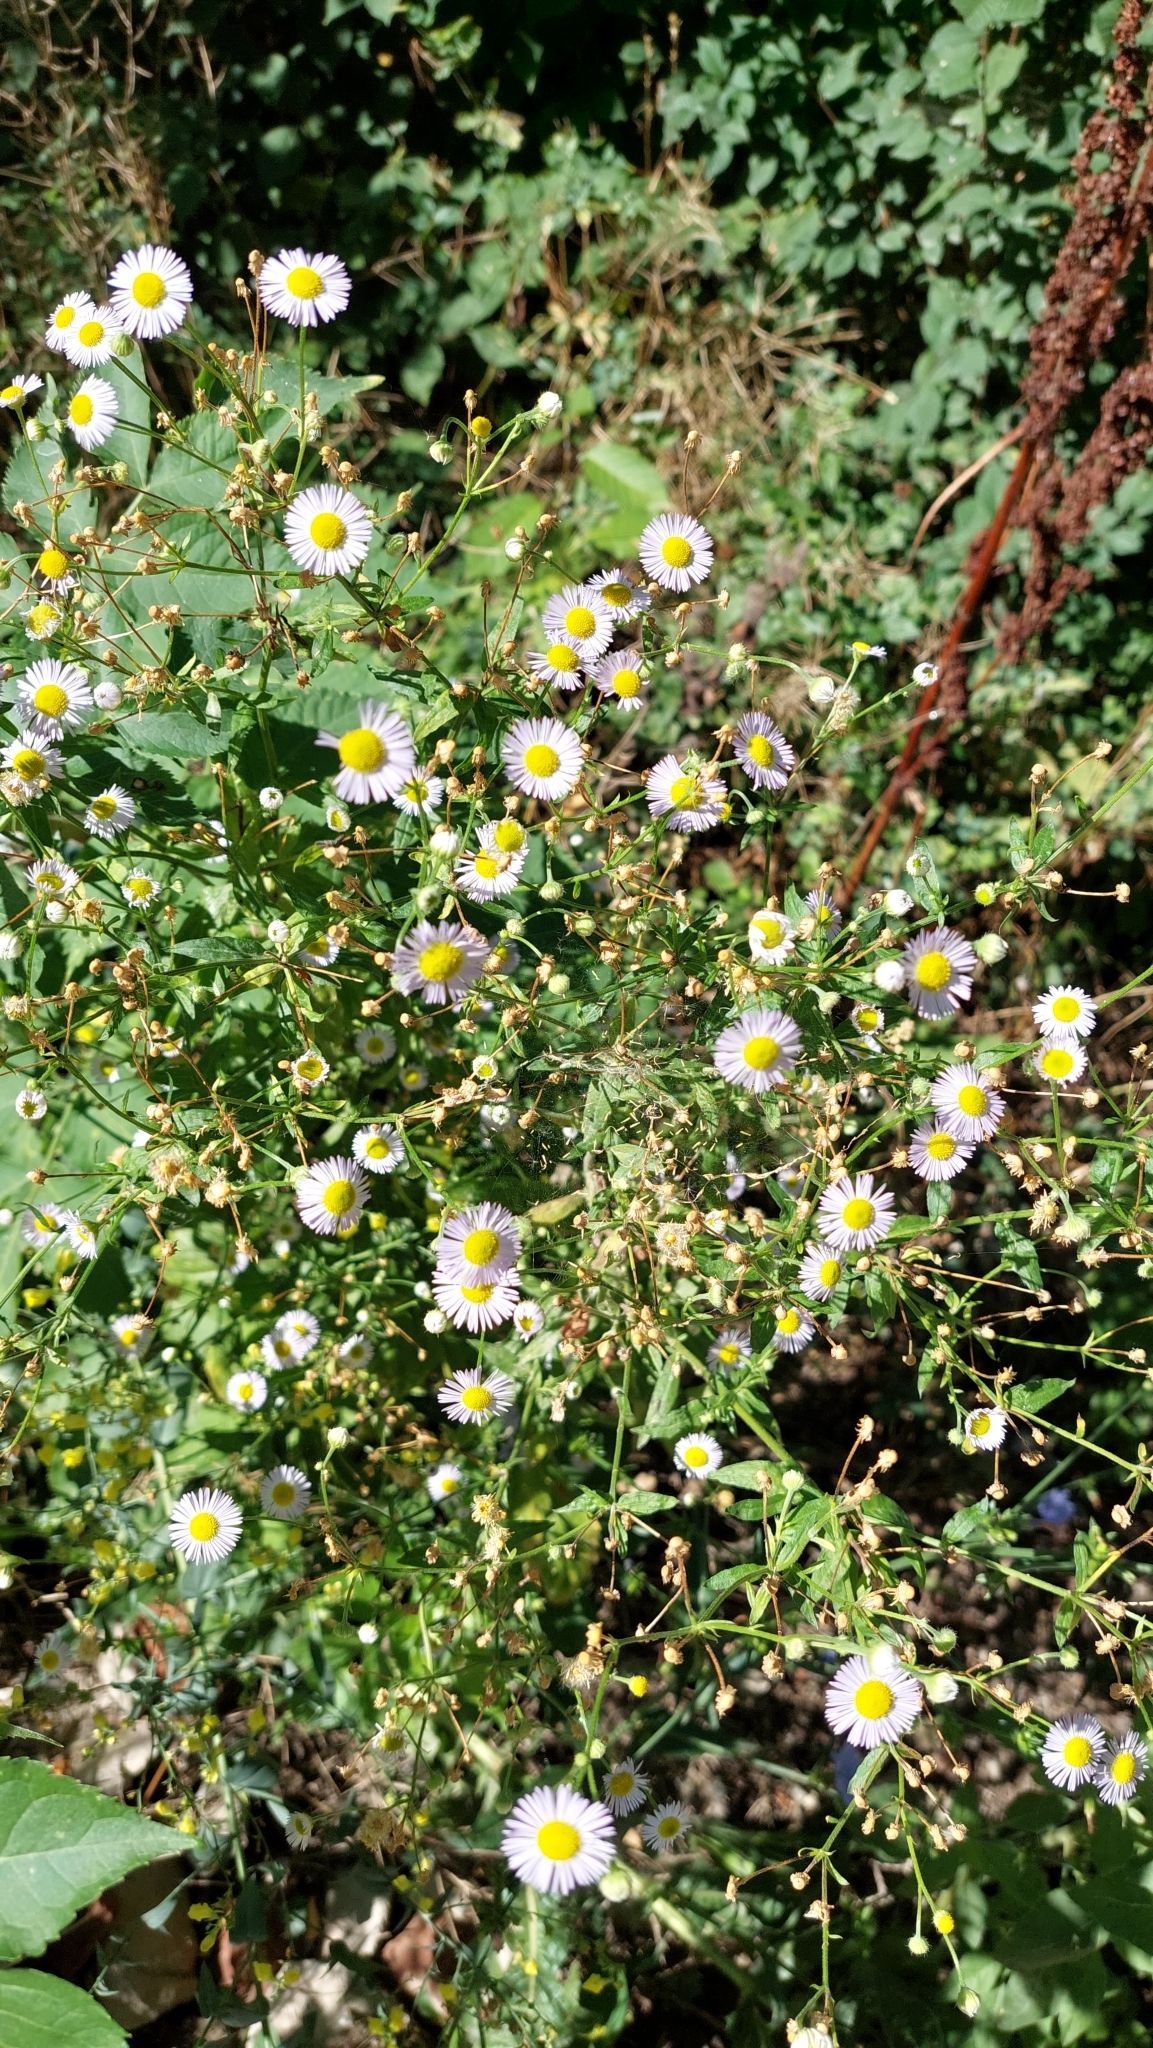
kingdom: Plantae
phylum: Tracheophyta
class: Magnoliopsida
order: Asterales
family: Asteraceae
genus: Erigeron
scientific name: Erigeron annuus
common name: Tall fleabane
